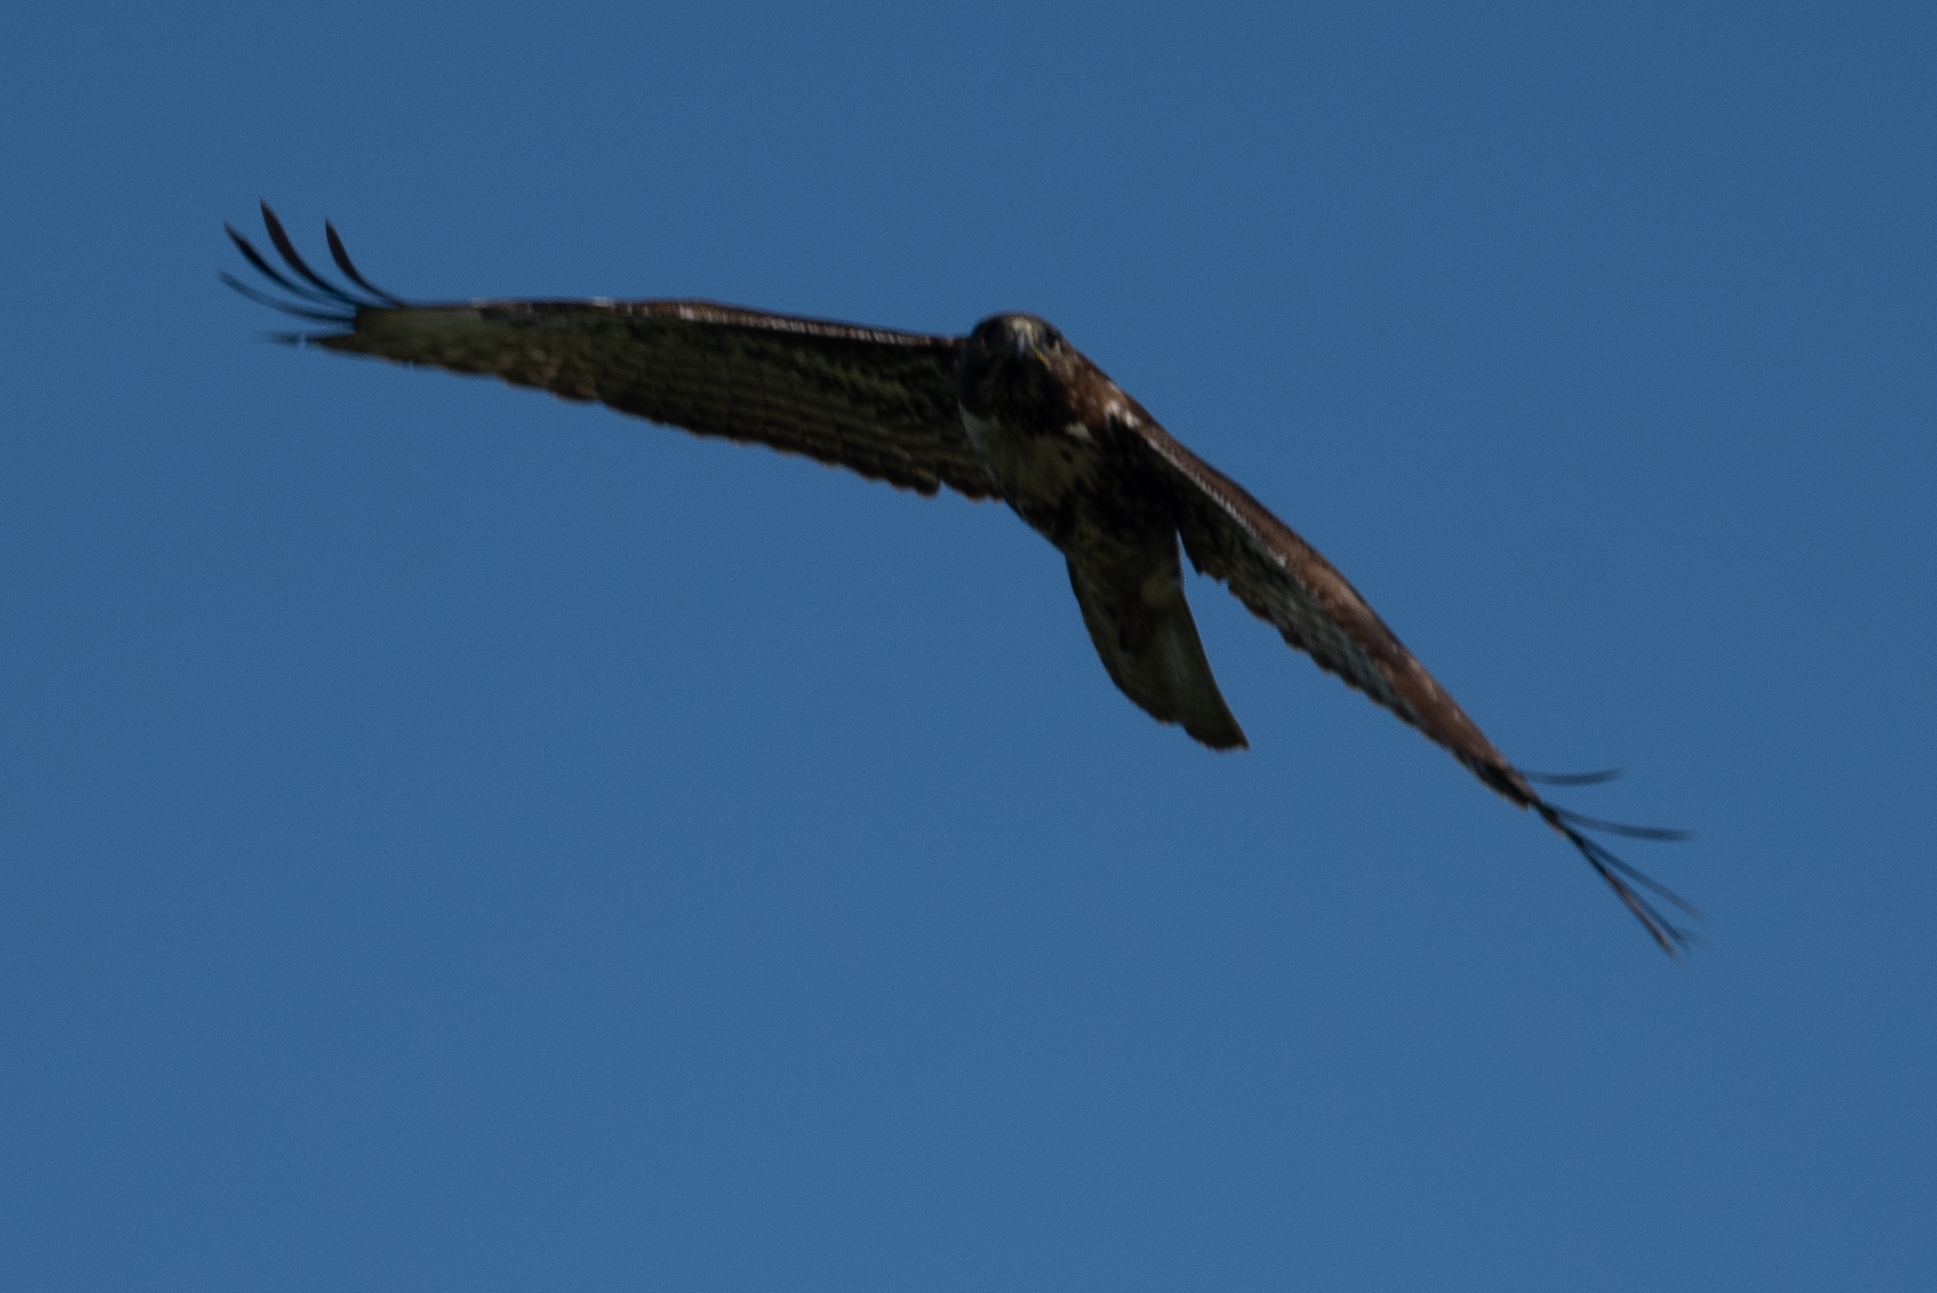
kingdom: Animalia
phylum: Chordata
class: Aves
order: Accipitriformes
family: Accipitridae
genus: Buteo
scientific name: Buteo jamaicensis
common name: Red-tailed hawk
